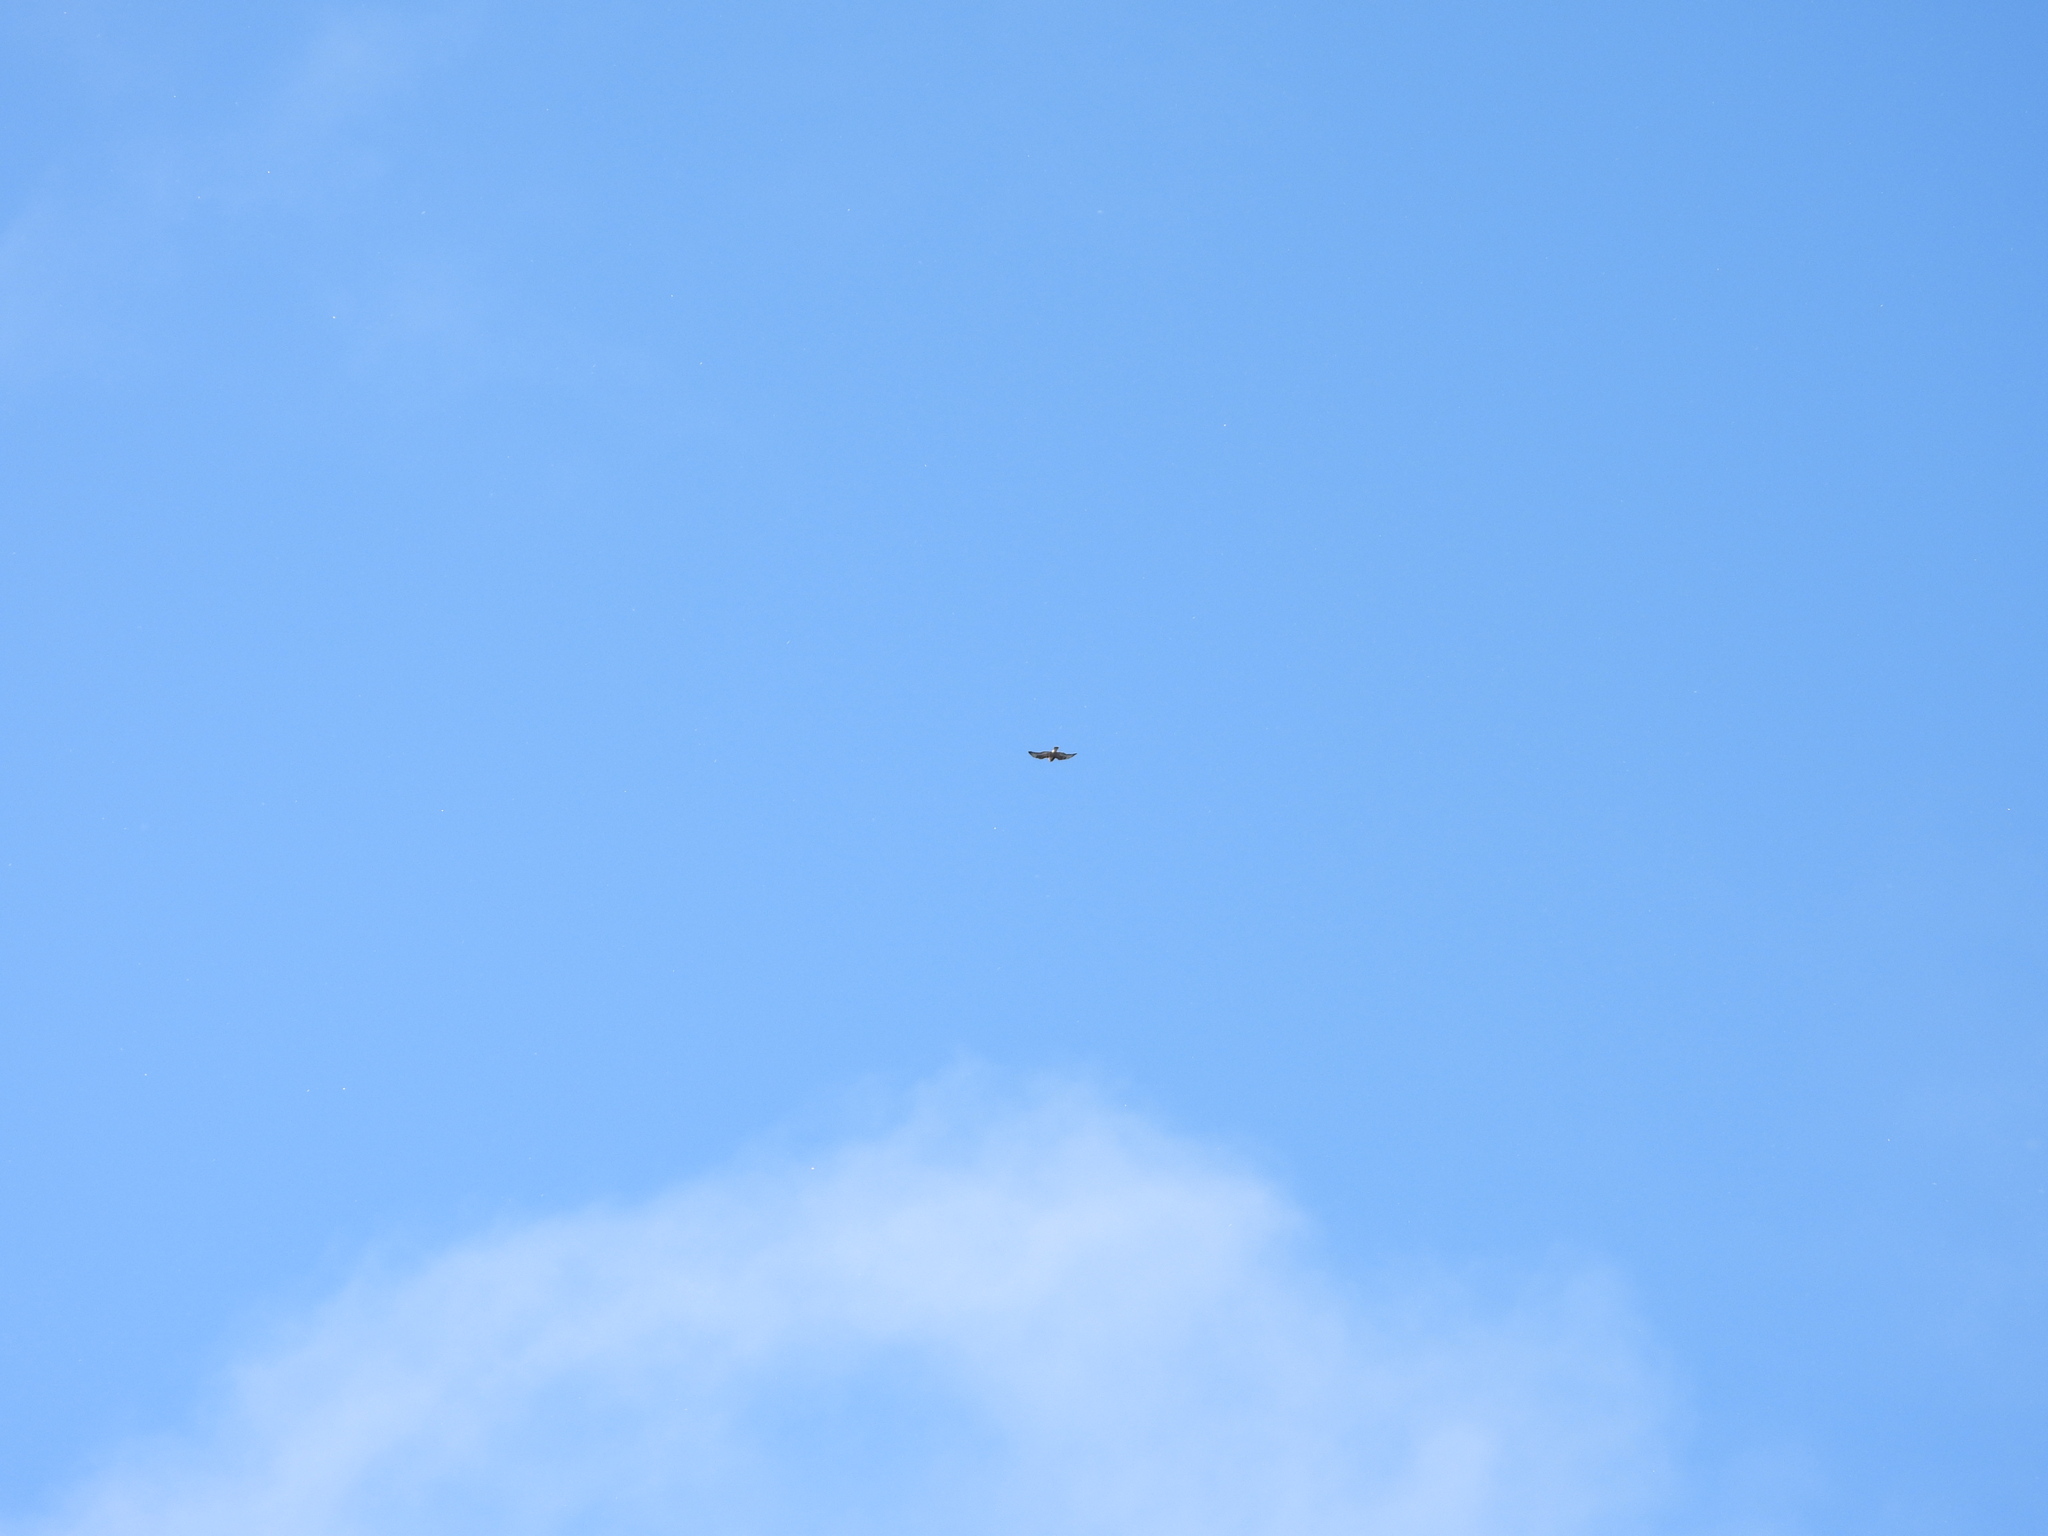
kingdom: Animalia
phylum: Chordata
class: Aves
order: Accipitriformes
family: Accipitridae
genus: Buteo
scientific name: Buteo lagopus
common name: Rough-legged buzzard
